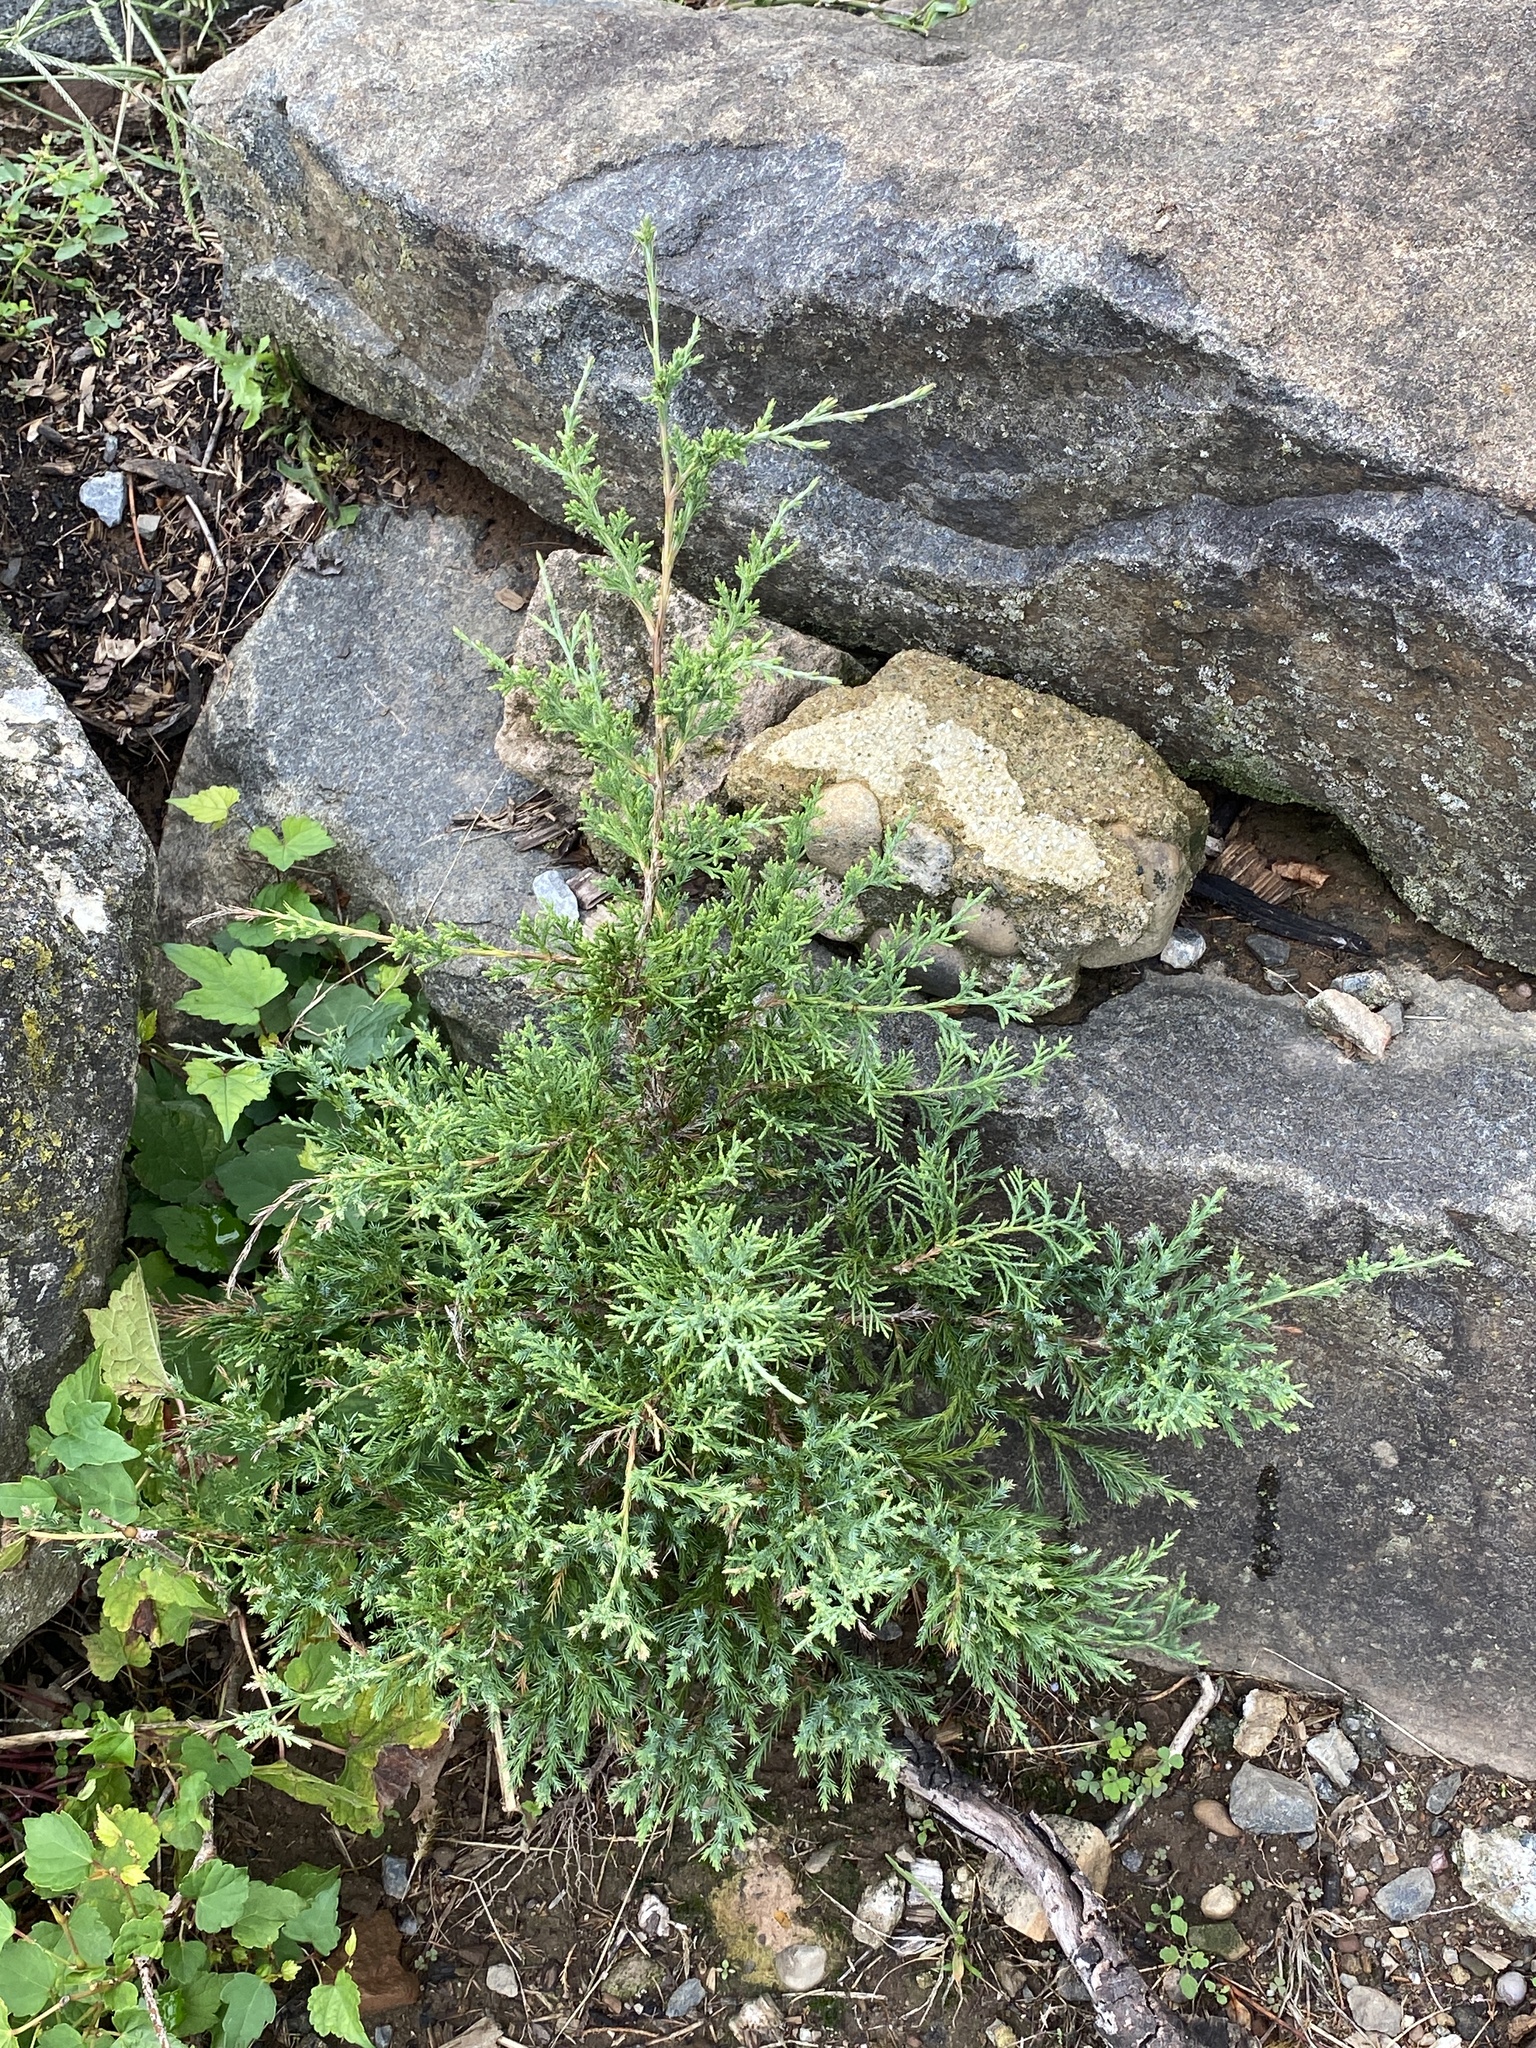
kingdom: Plantae
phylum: Tracheophyta
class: Pinopsida
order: Pinales
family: Cupressaceae
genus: Juniperus
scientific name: Juniperus virginiana
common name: Red juniper
